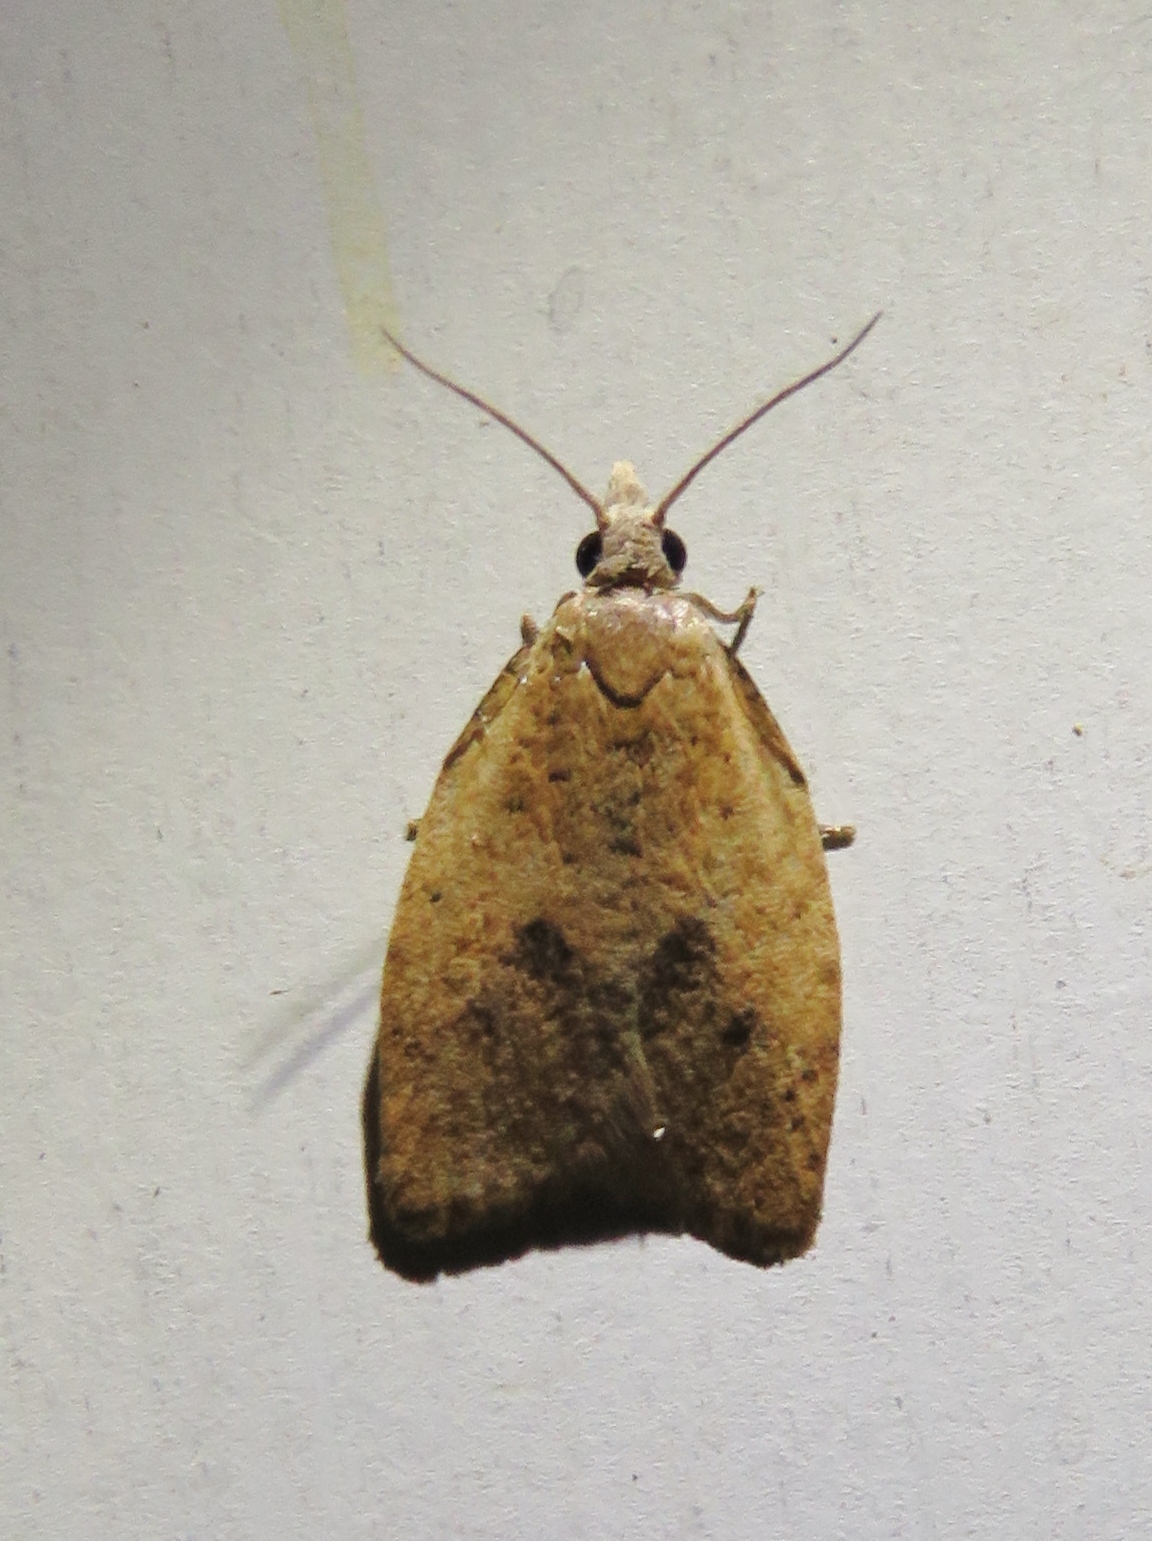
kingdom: Animalia
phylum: Arthropoda
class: Insecta
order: Lepidoptera
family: Tortricidae
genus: Sparganothoides
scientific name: Sparganothoides lentiginosana
